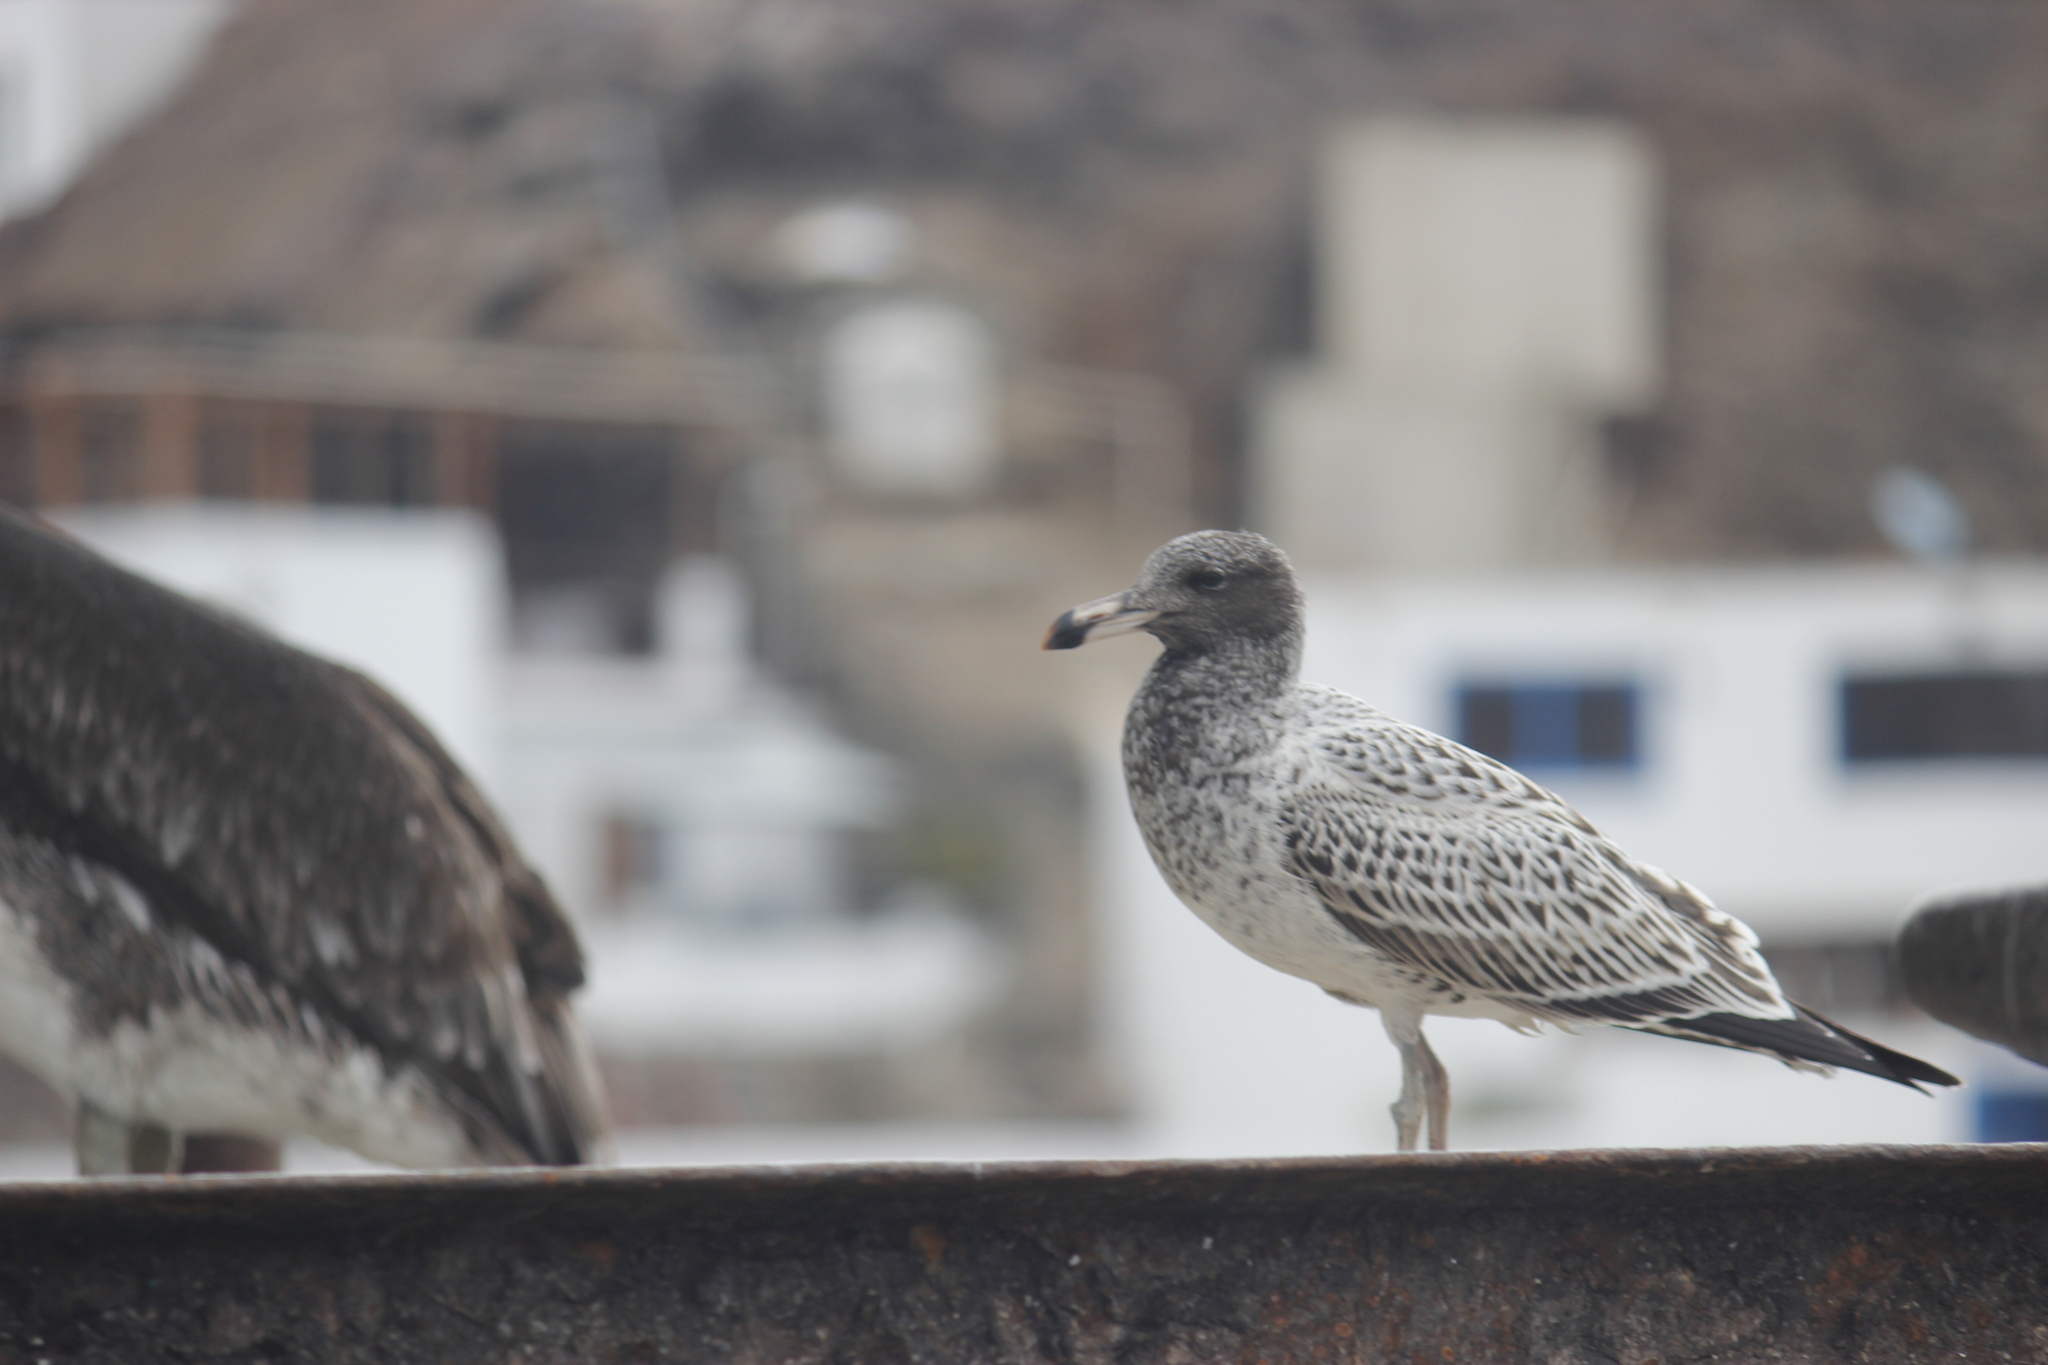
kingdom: Animalia
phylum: Chordata
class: Aves
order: Charadriiformes
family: Laridae
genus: Larus
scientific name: Larus belcheri
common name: Belcher's gull
